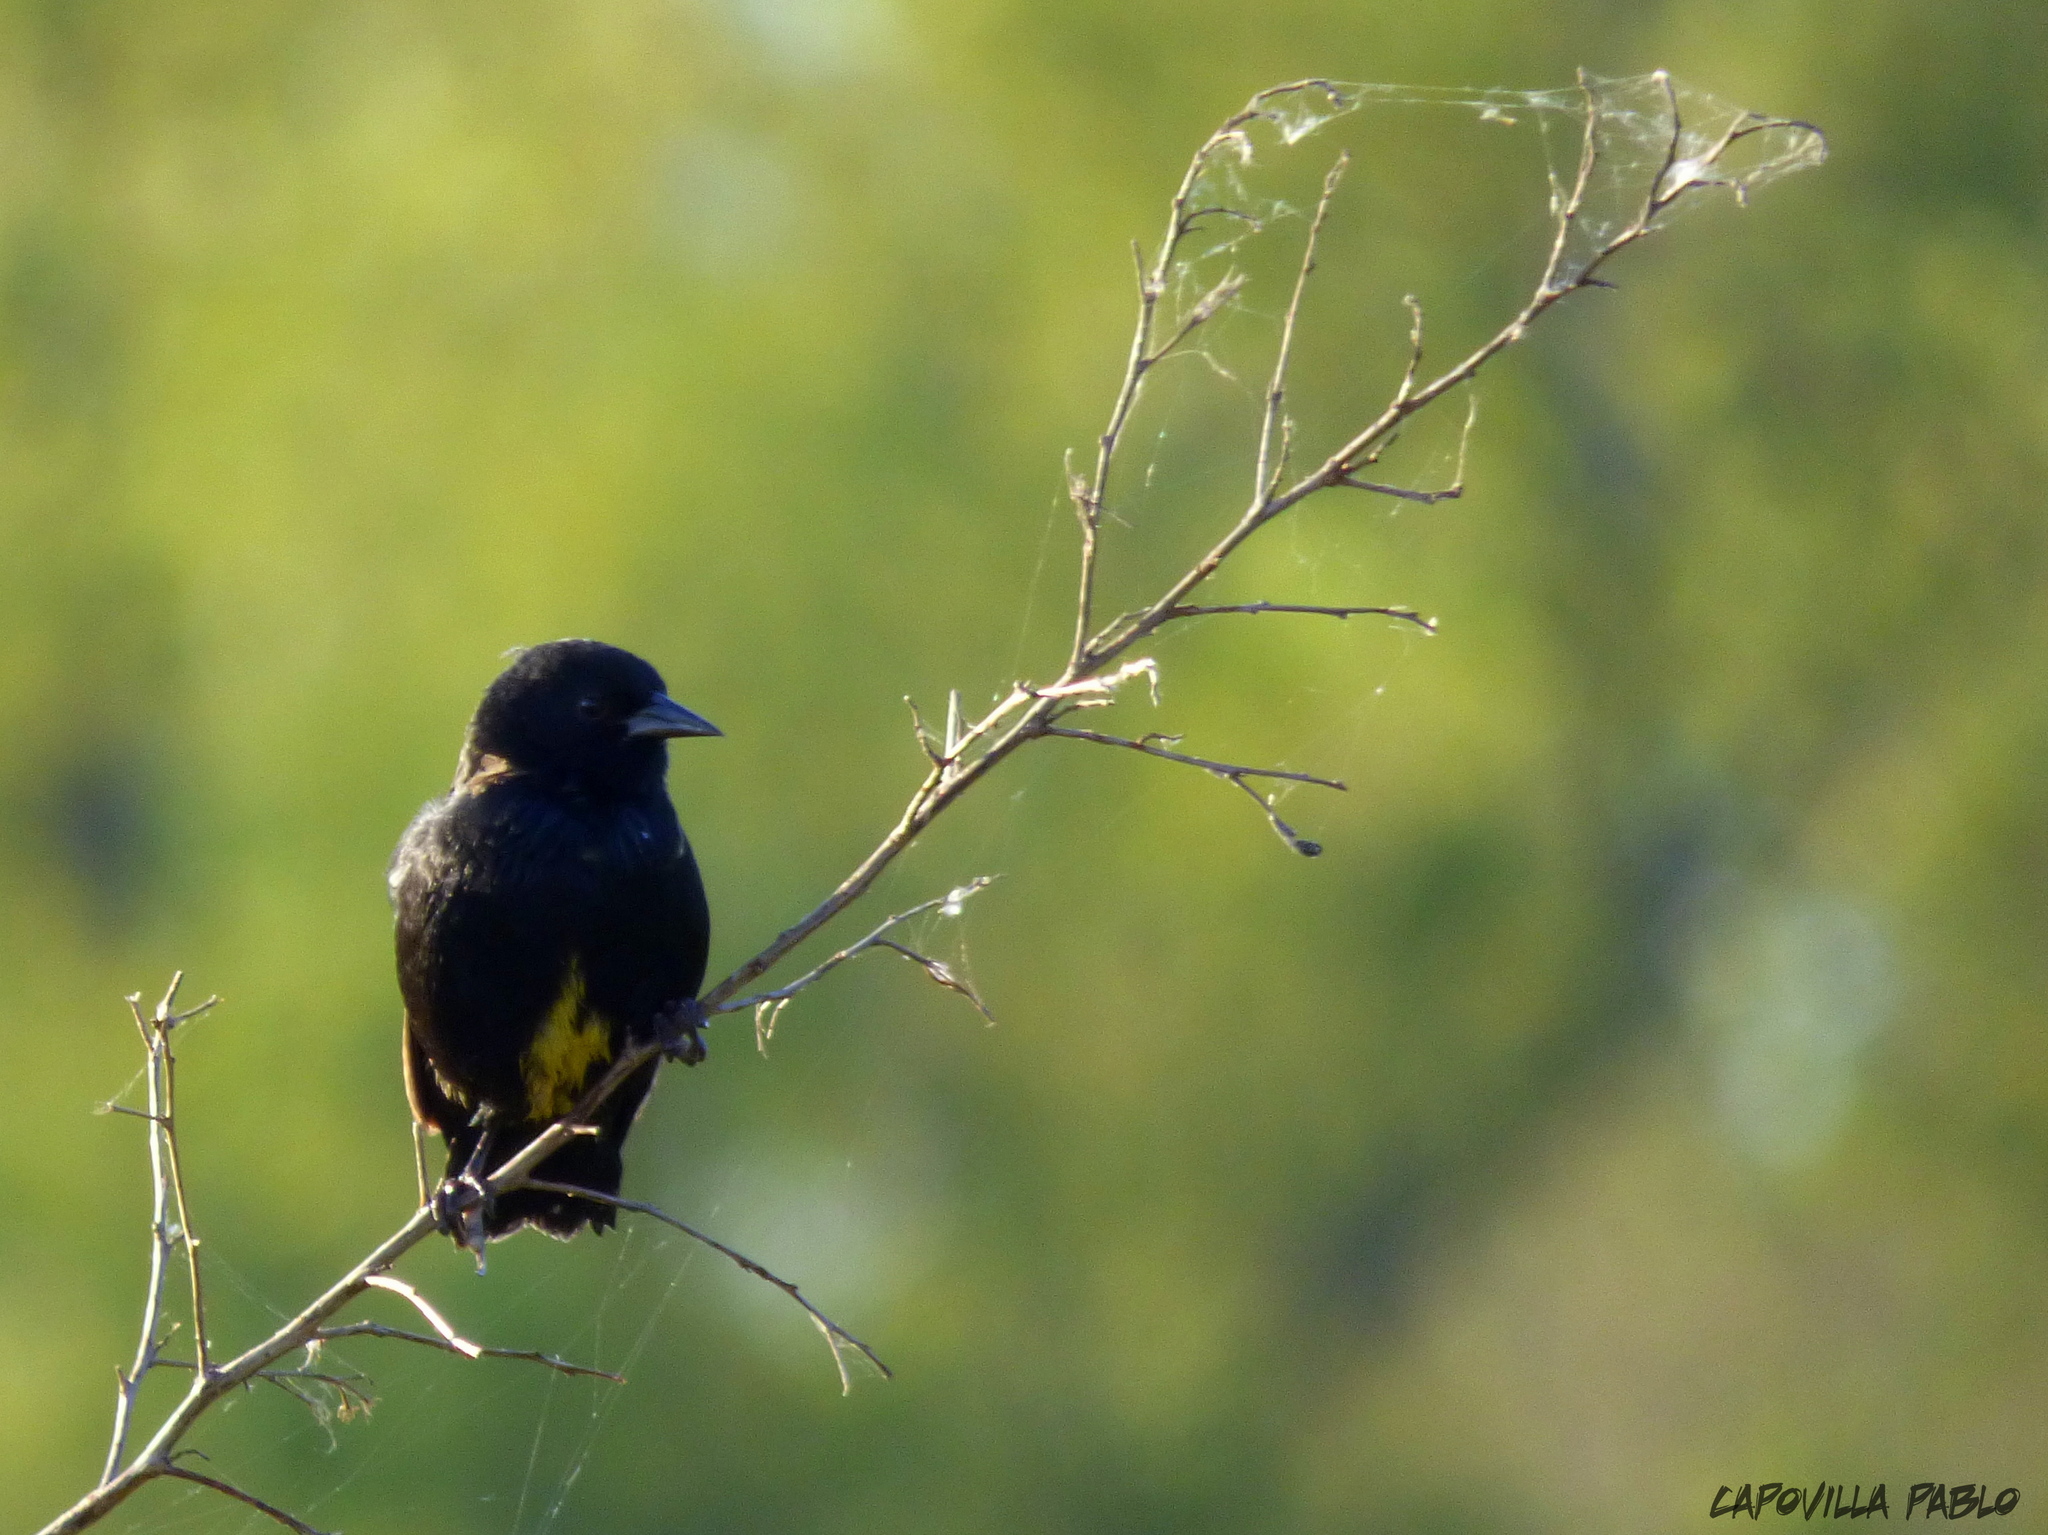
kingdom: Animalia
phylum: Chordata
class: Aves
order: Passeriformes
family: Icteridae
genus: Agelasticus
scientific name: Agelasticus cyanopus
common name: Unicolored blackbird
